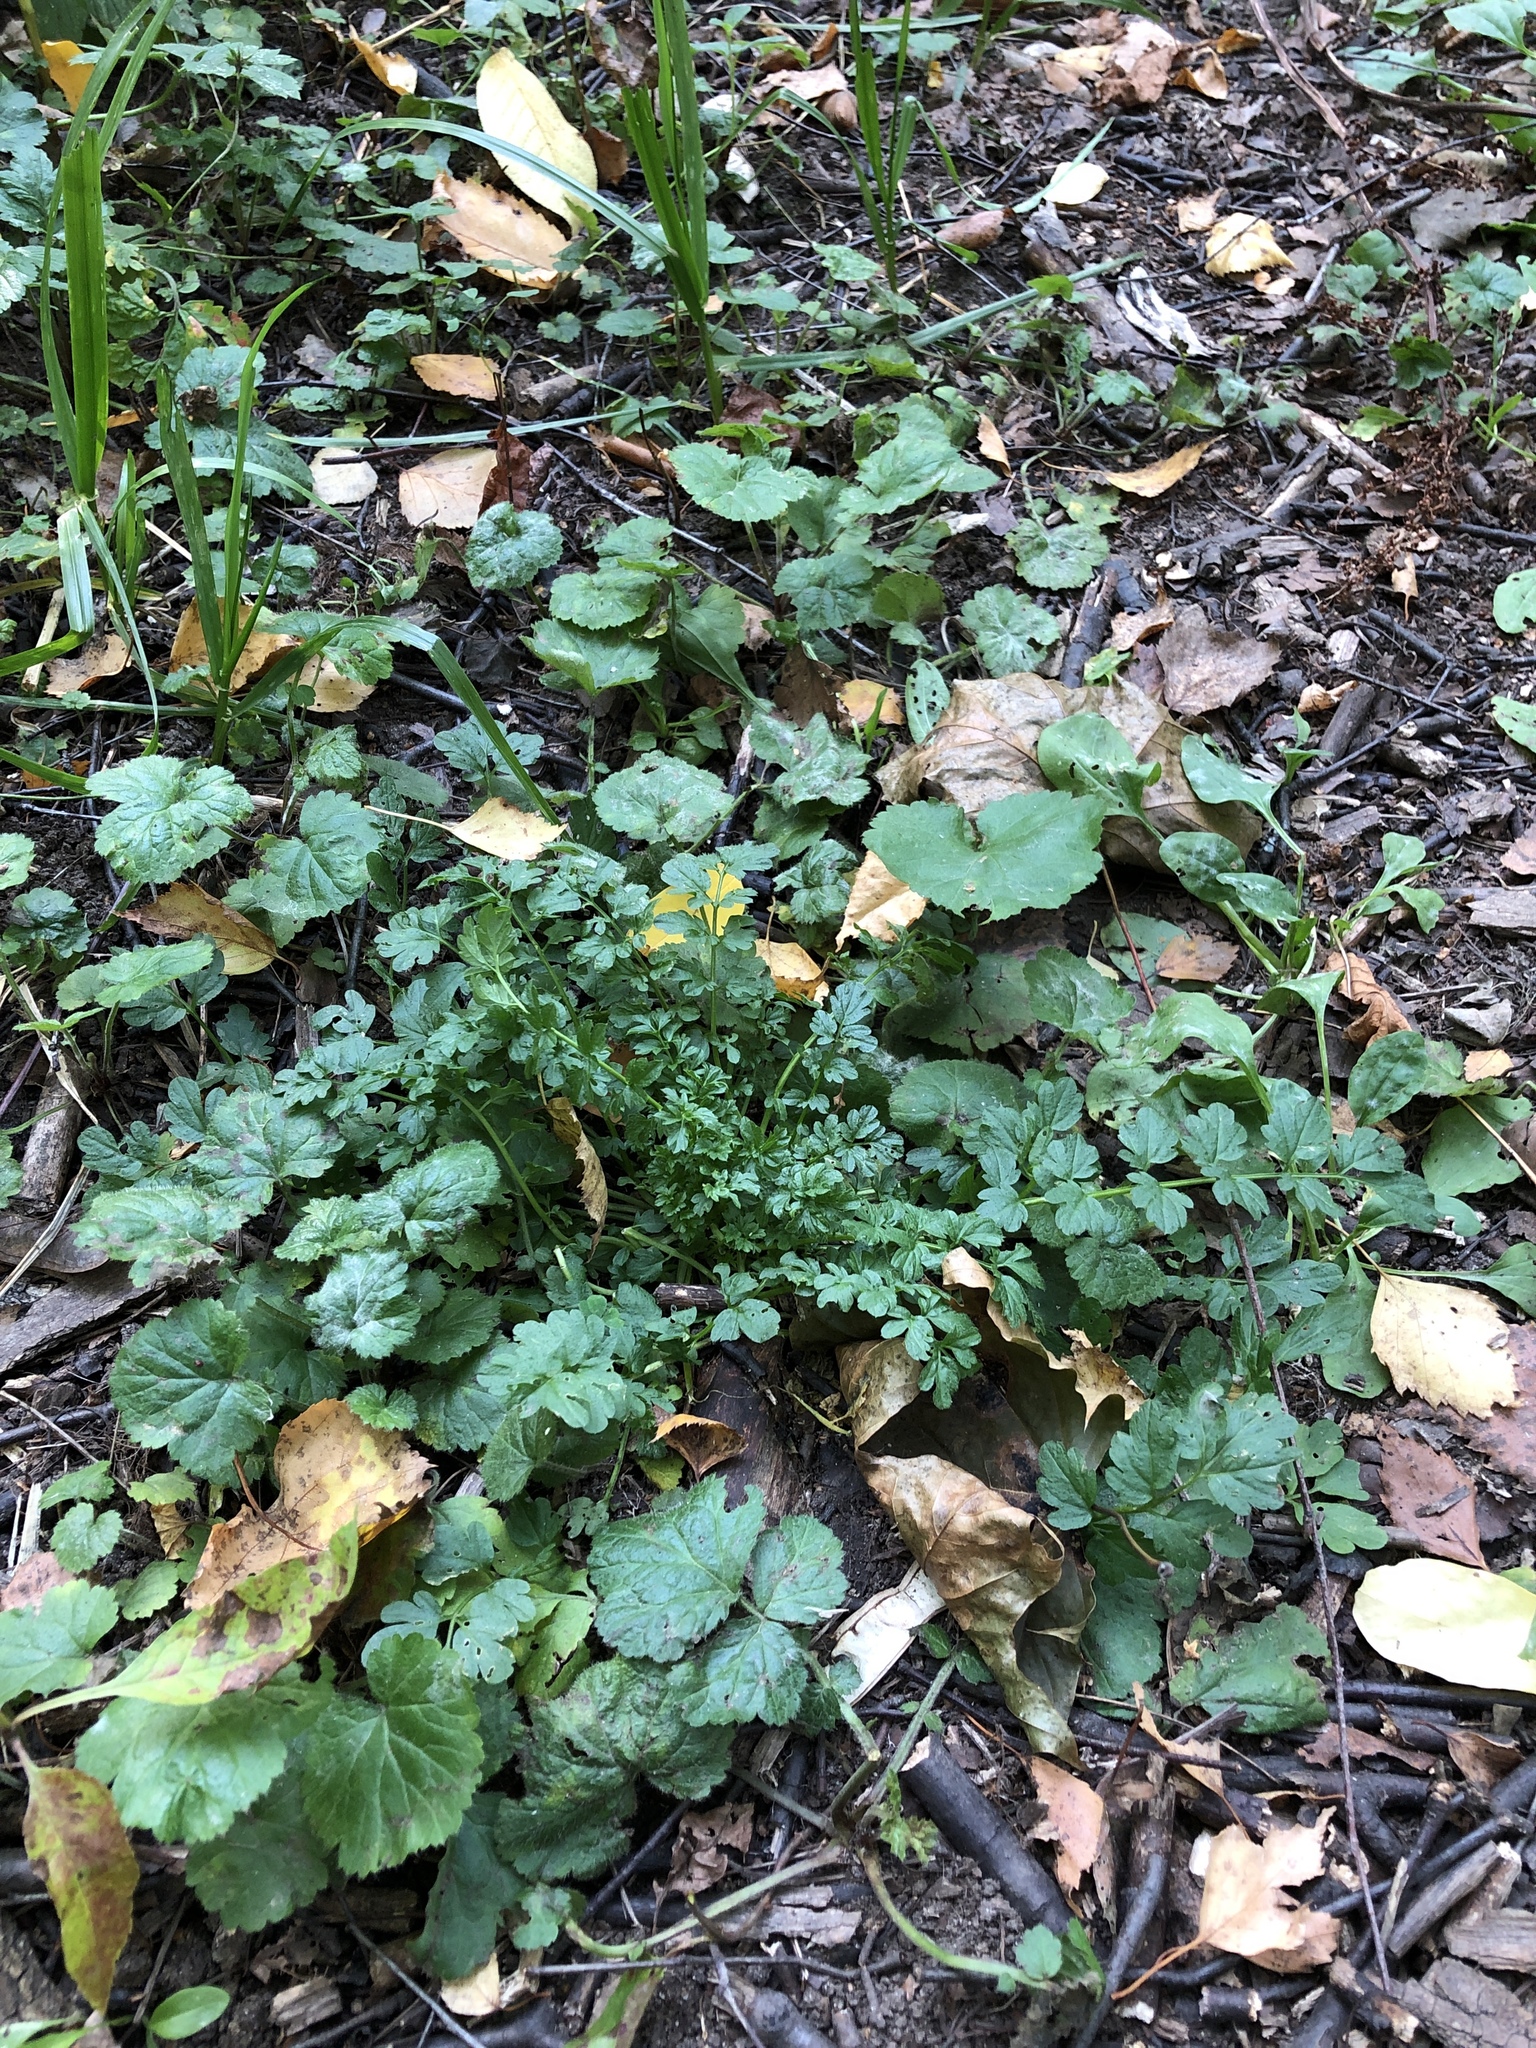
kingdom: Plantae
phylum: Tracheophyta
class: Magnoliopsida
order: Brassicales
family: Brassicaceae
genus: Cardamine
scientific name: Cardamine impatiens
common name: Narrow-leaved bitter-cress
